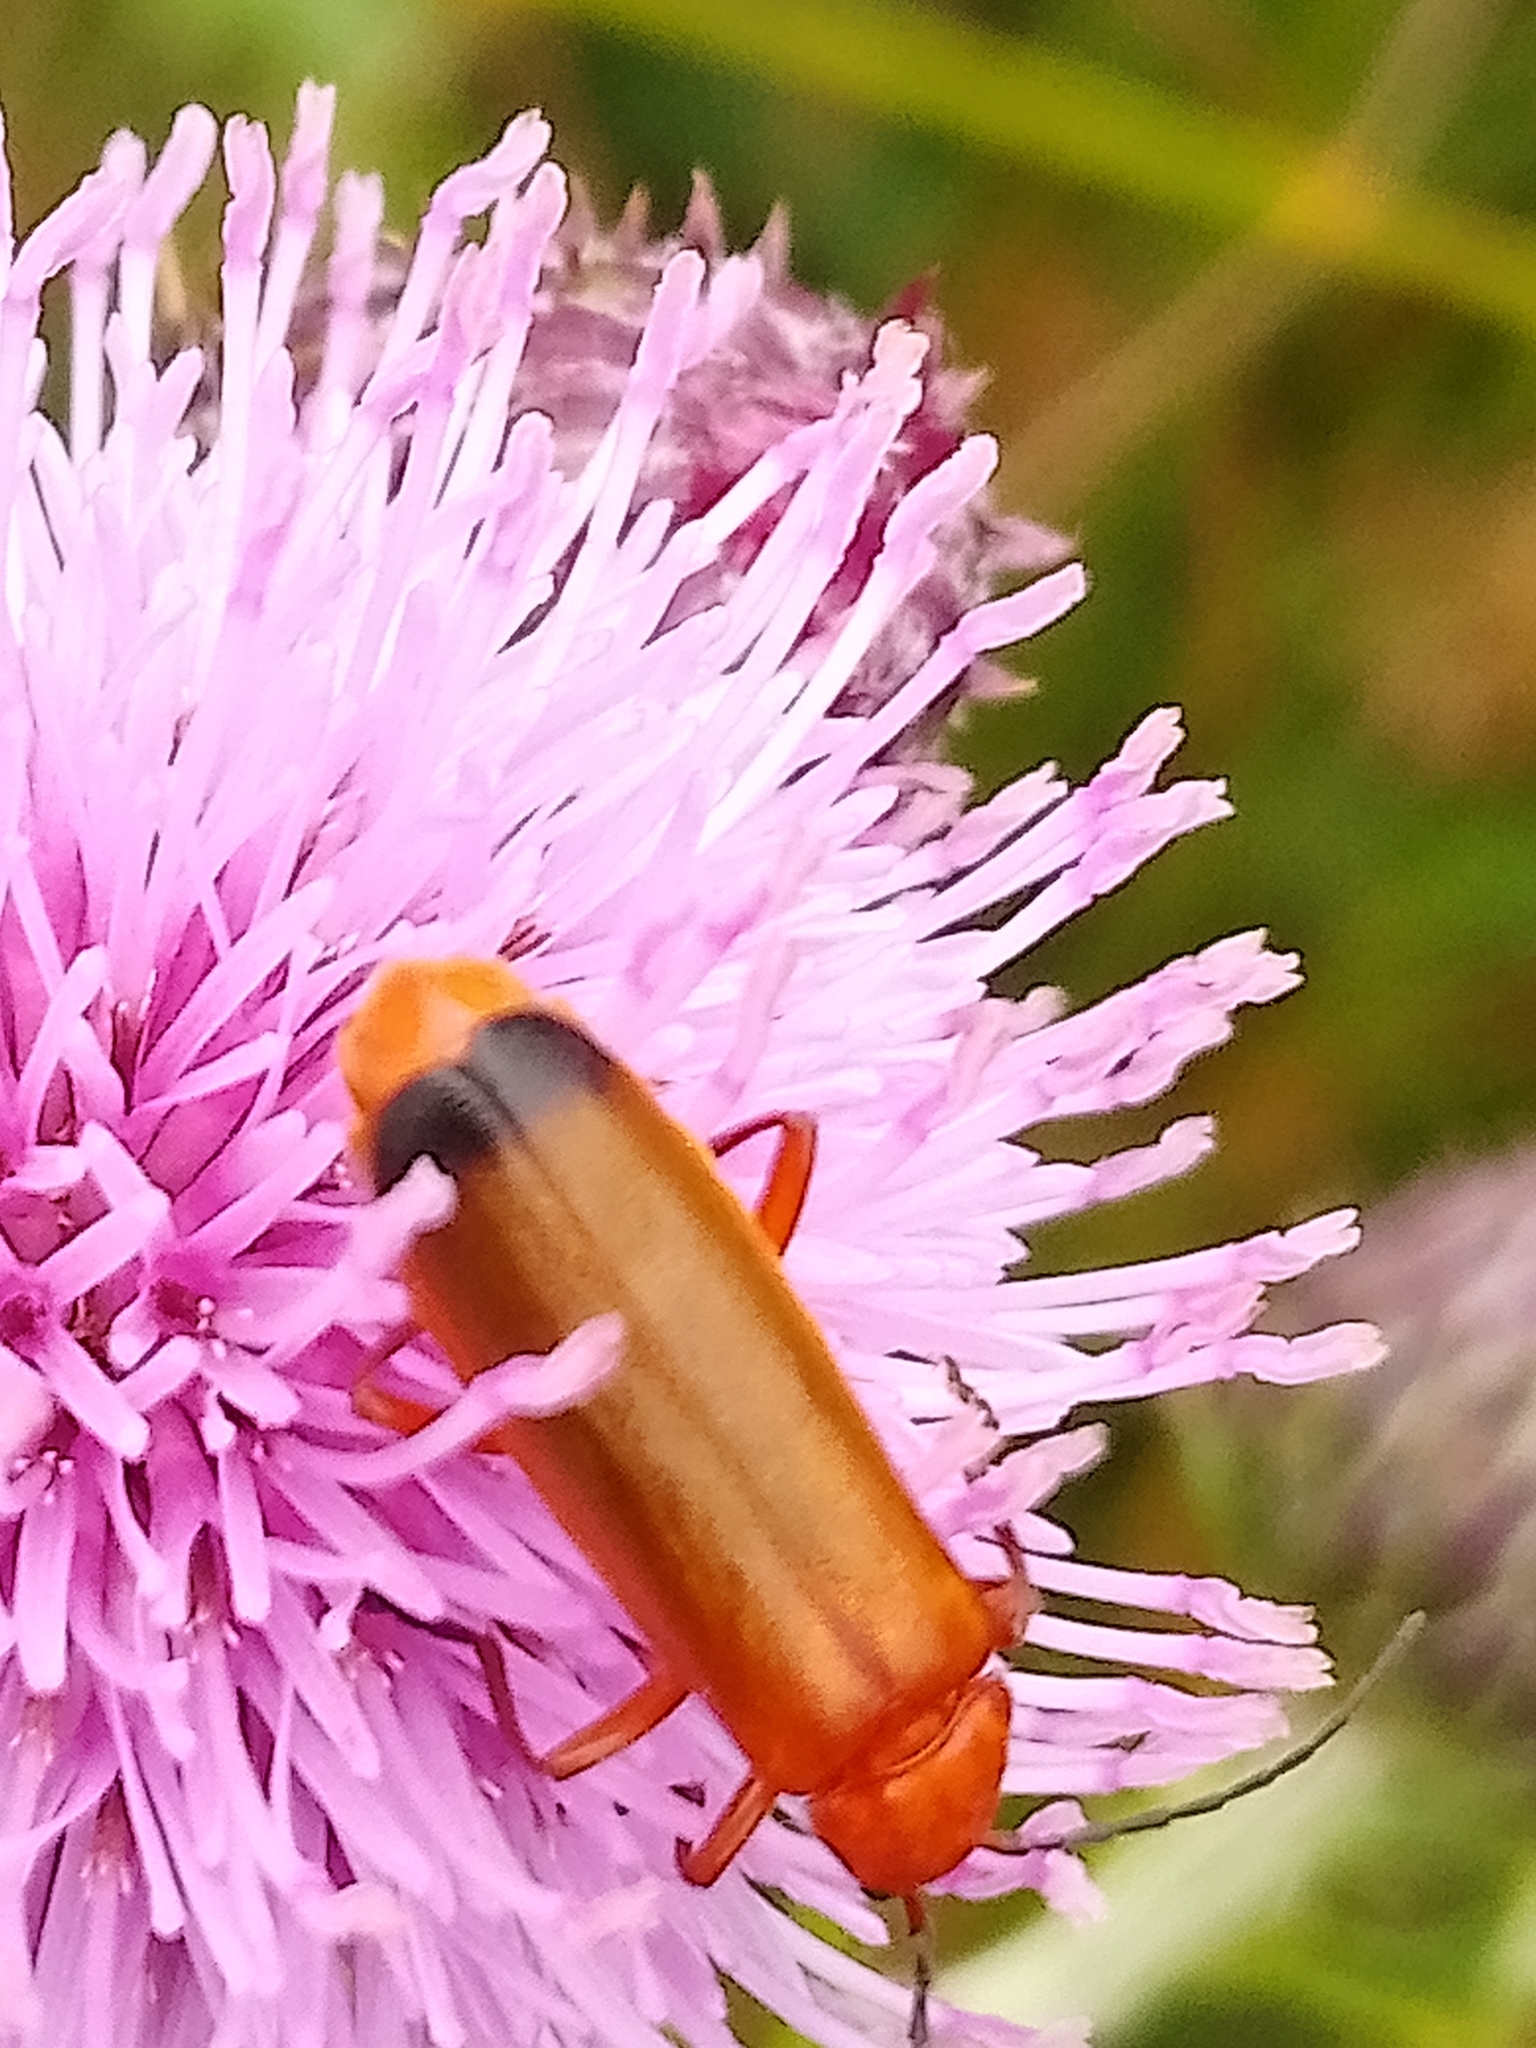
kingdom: Animalia
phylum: Arthropoda
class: Insecta
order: Coleoptera
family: Cantharidae
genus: Rhagonycha
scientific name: Rhagonycha fulva
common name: Common red soldier beetle
